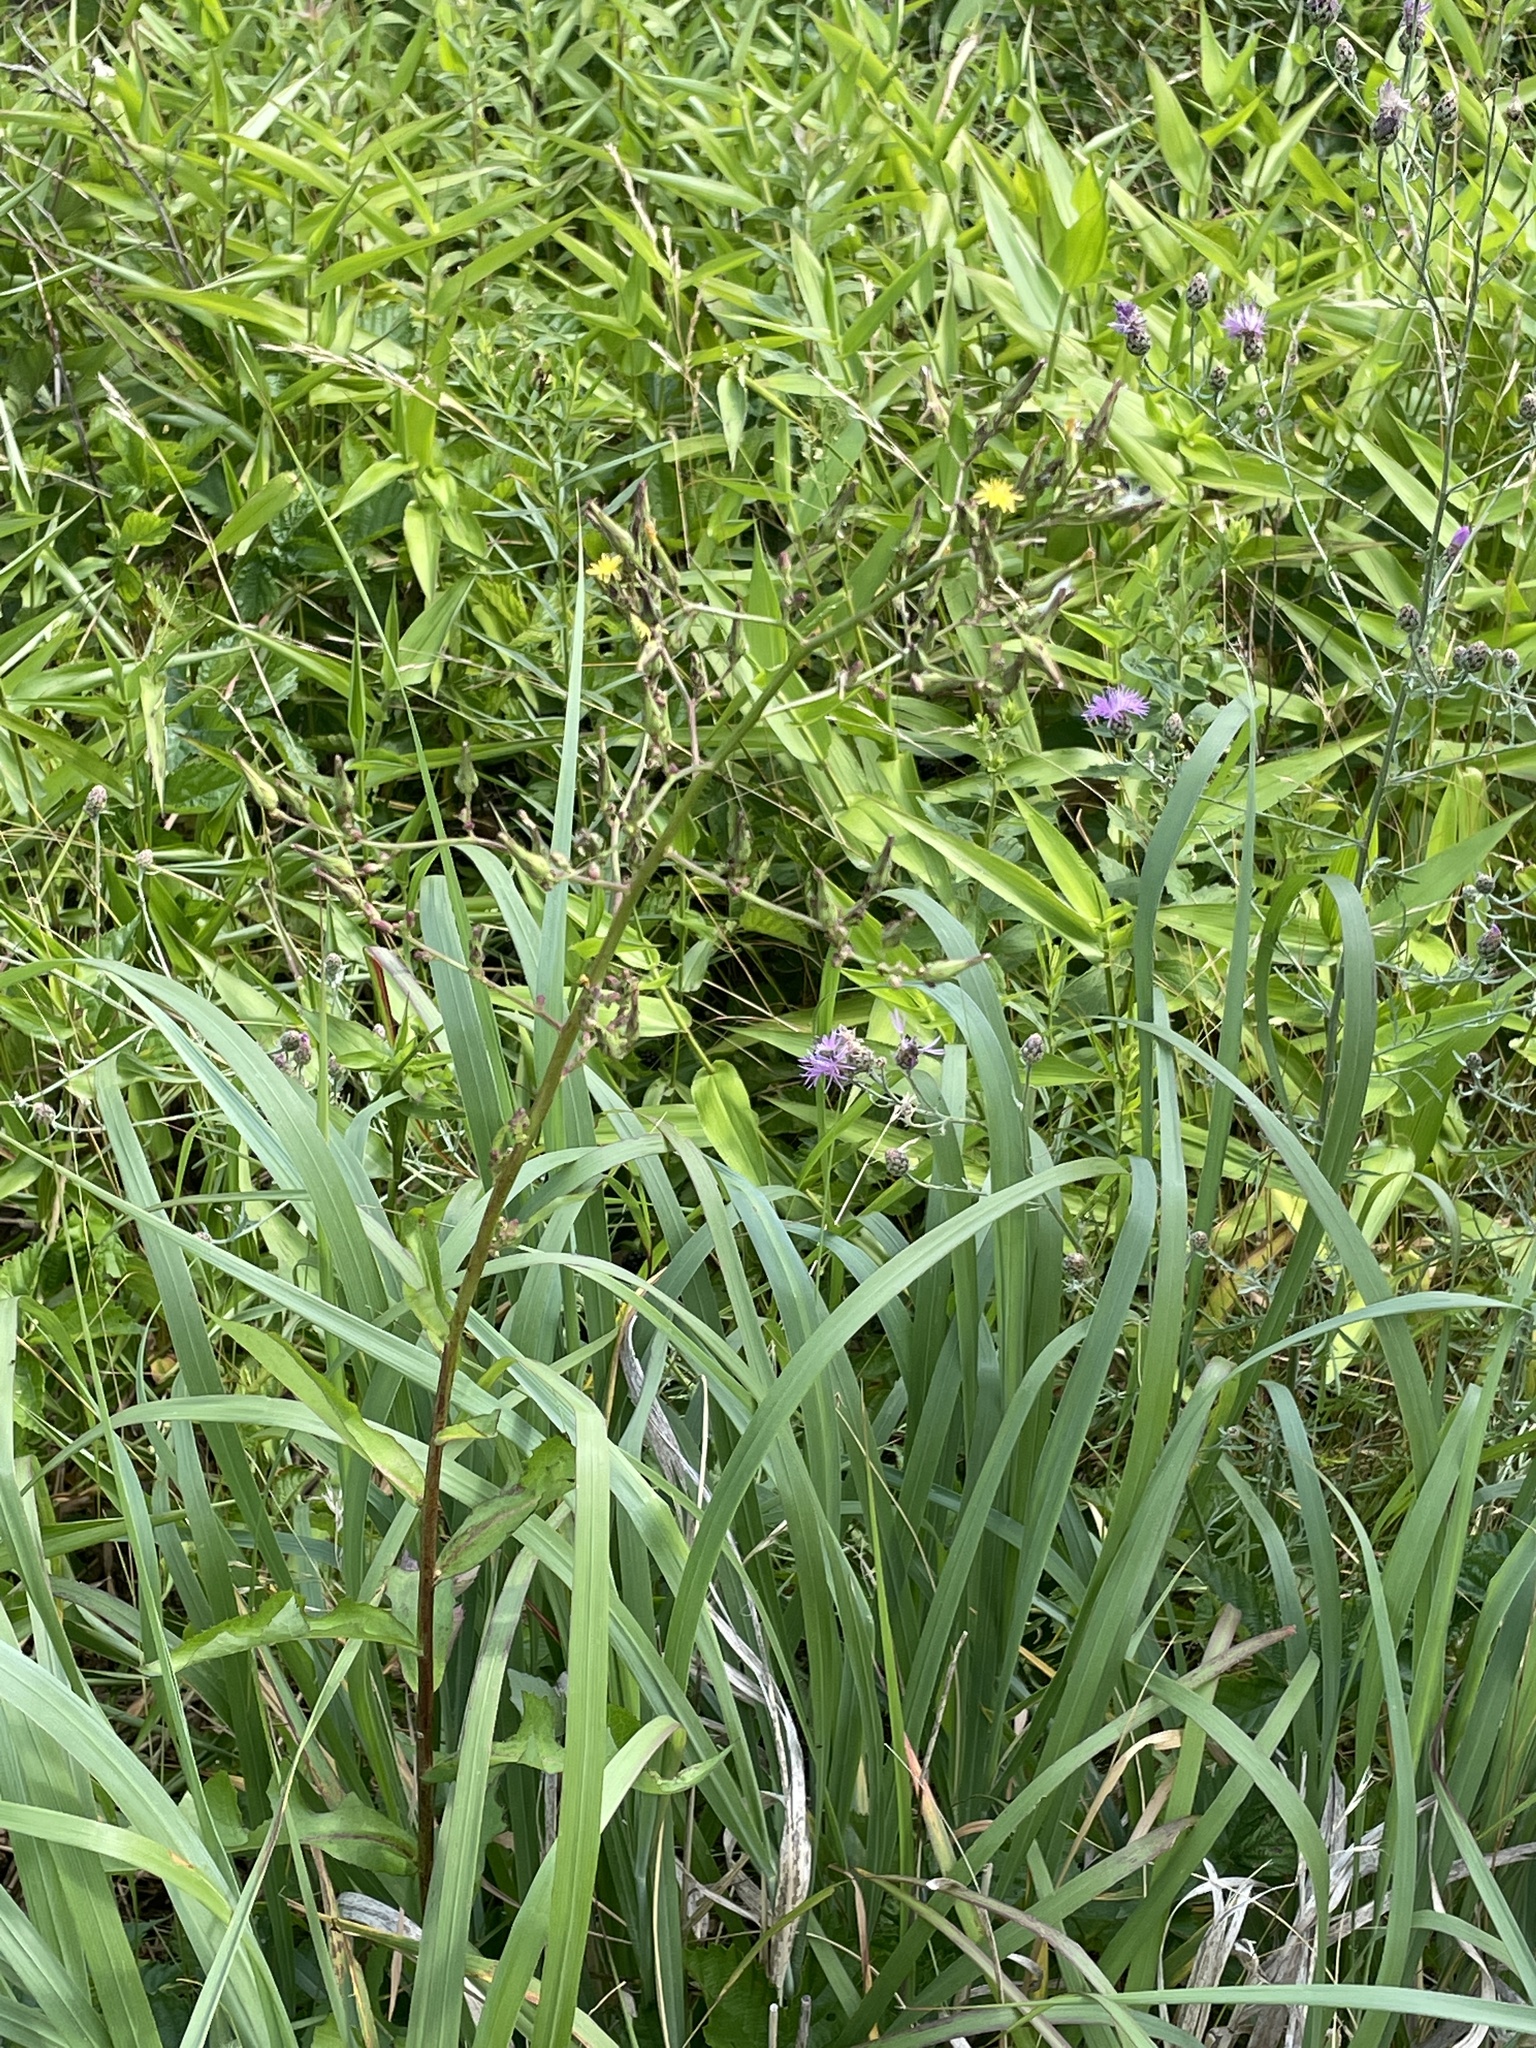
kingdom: Plantae
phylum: Tracheophyta
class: Magnoliopsida
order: Asterales
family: Asteraceae
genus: Lactuca
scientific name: Lactuca canadensis
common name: Canada lettuce
